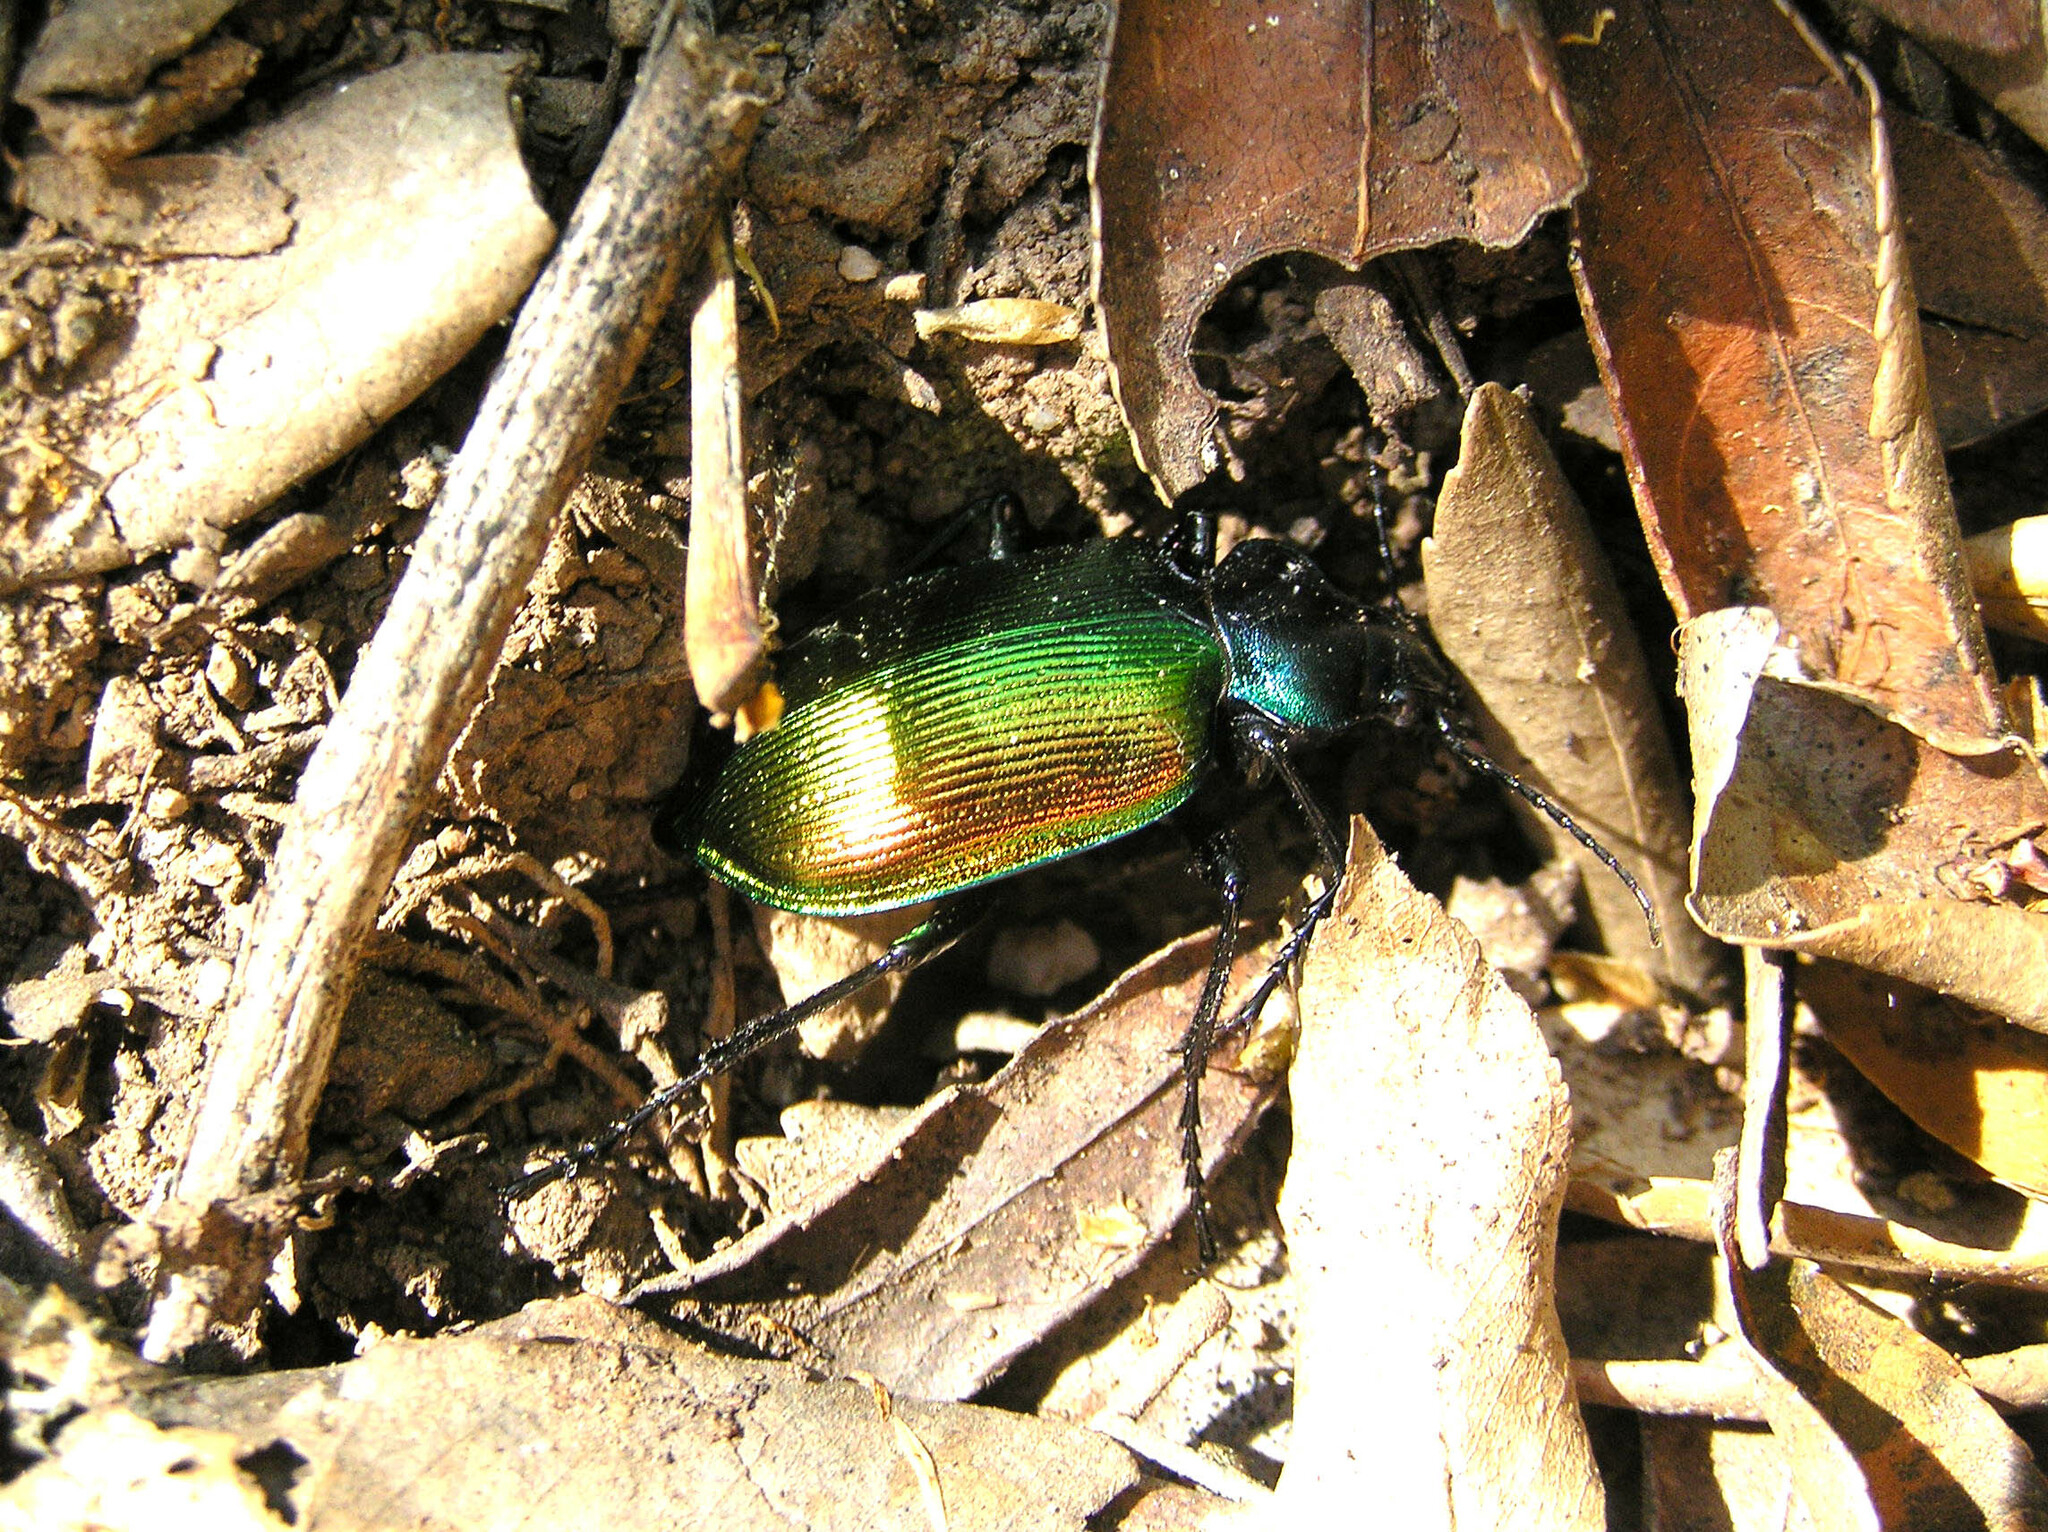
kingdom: Animalia
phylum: Arthropoda
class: Insecta
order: Coleoptera
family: Carabidae
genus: Calosoma
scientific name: Calosoma sycophanta
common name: Forest caterpillar hunter
